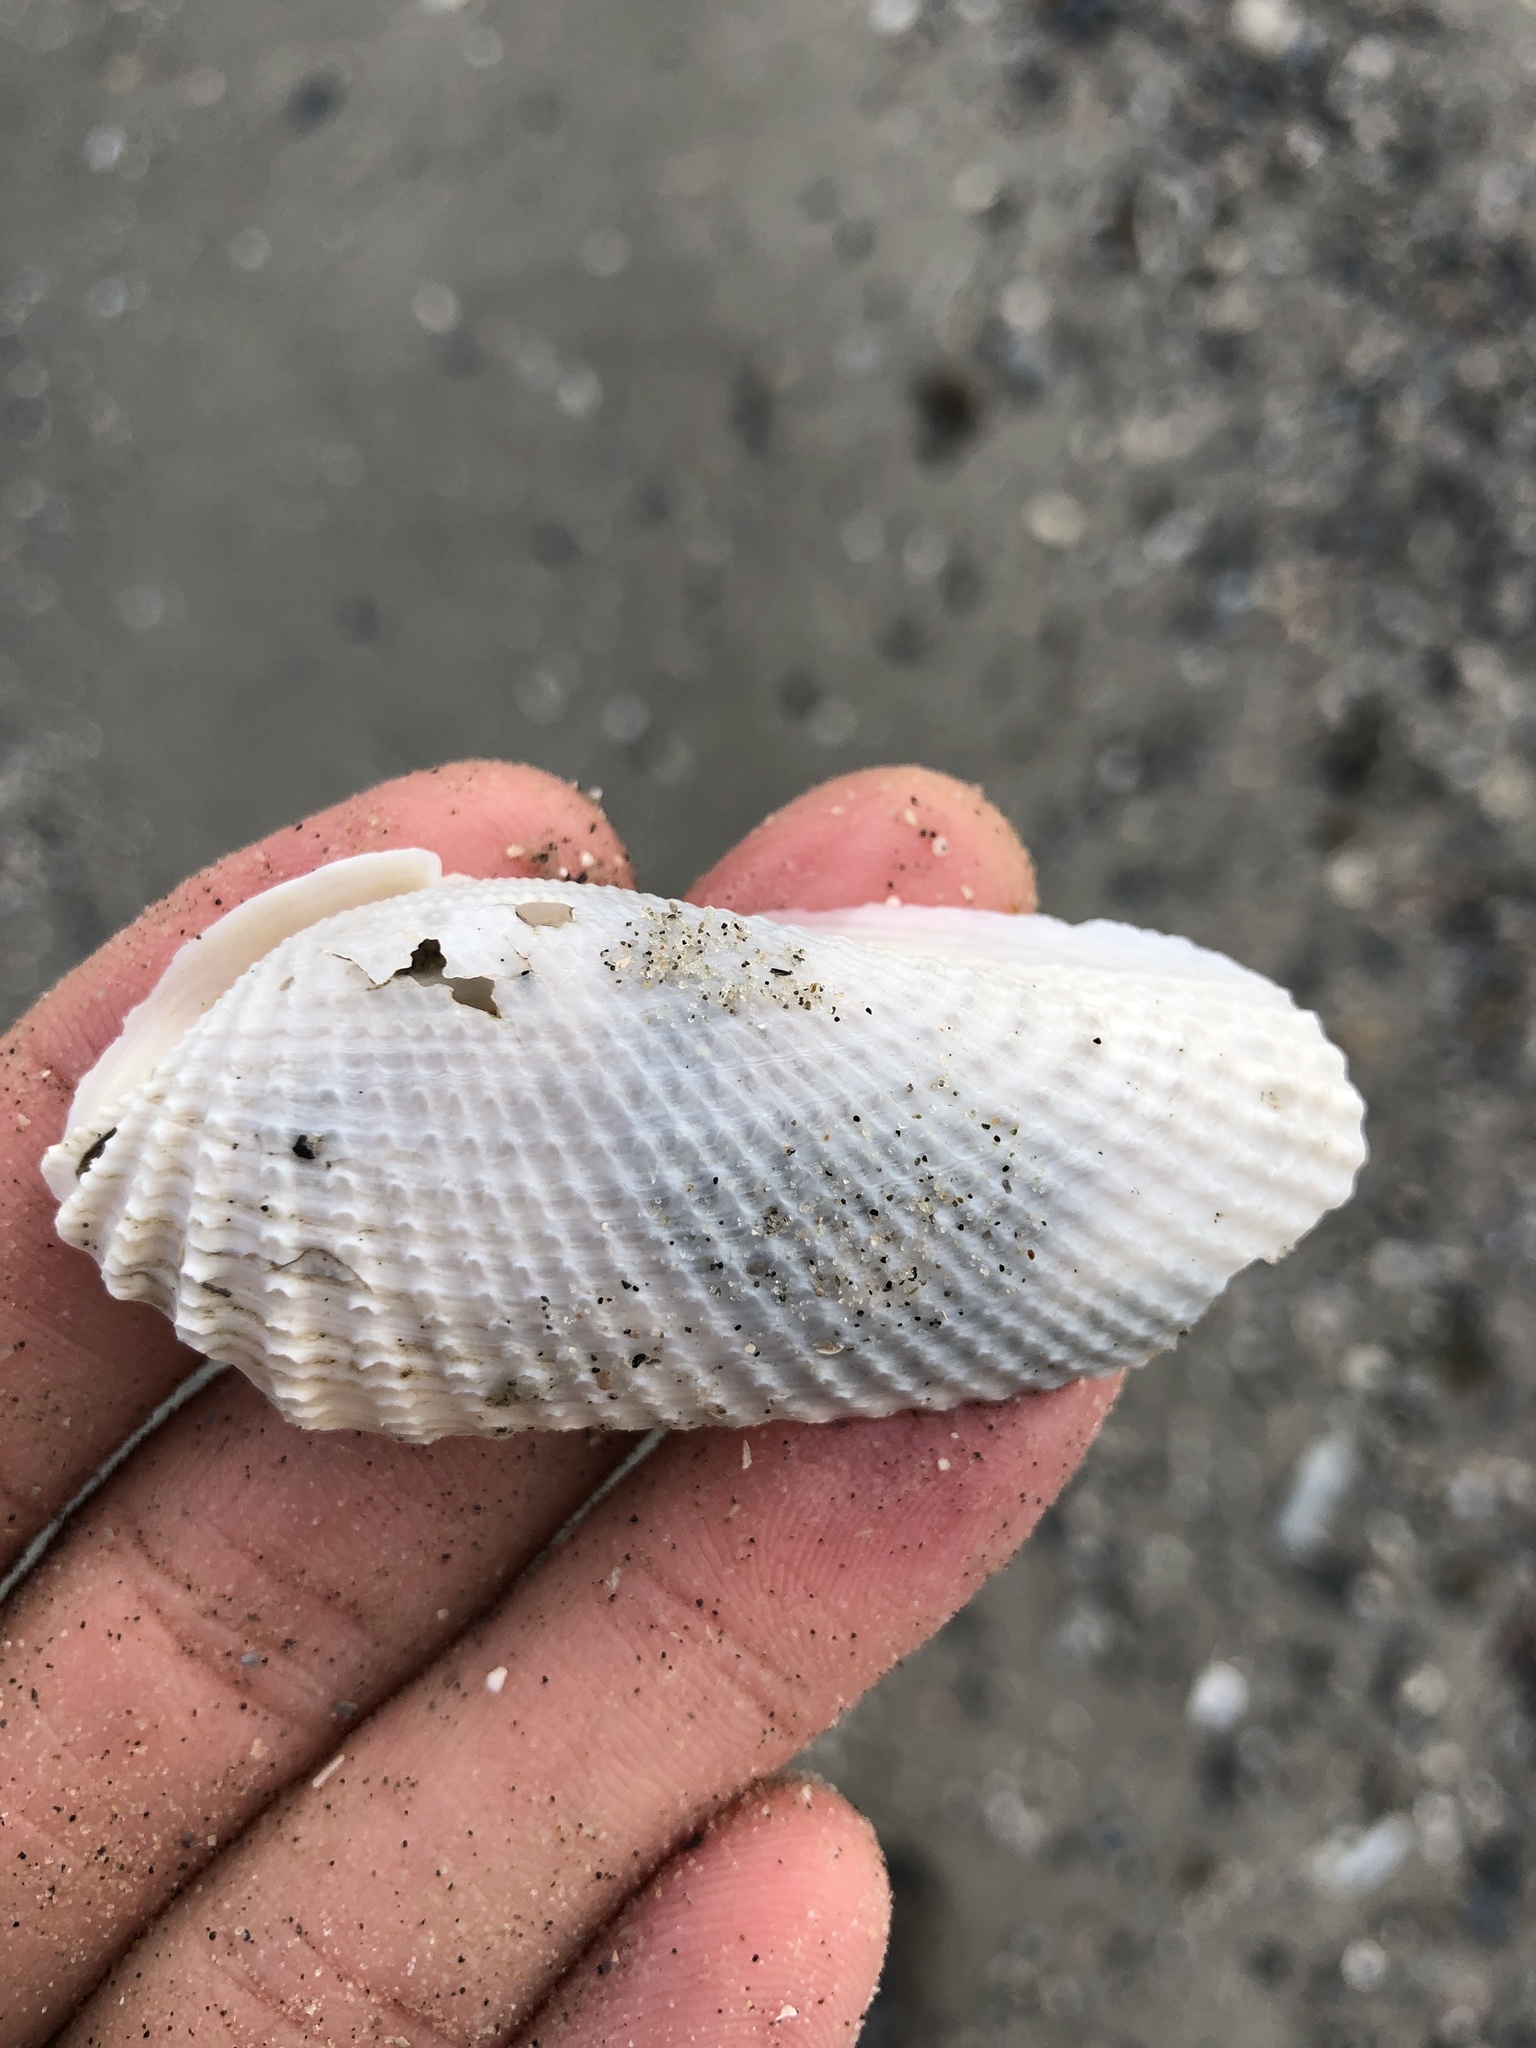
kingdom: Animalia
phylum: Mollusca
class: Bivalvia
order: Myida
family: Pholadidae
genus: Cyrtopleura
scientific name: Cyrtopleura costata
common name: Angel wing
